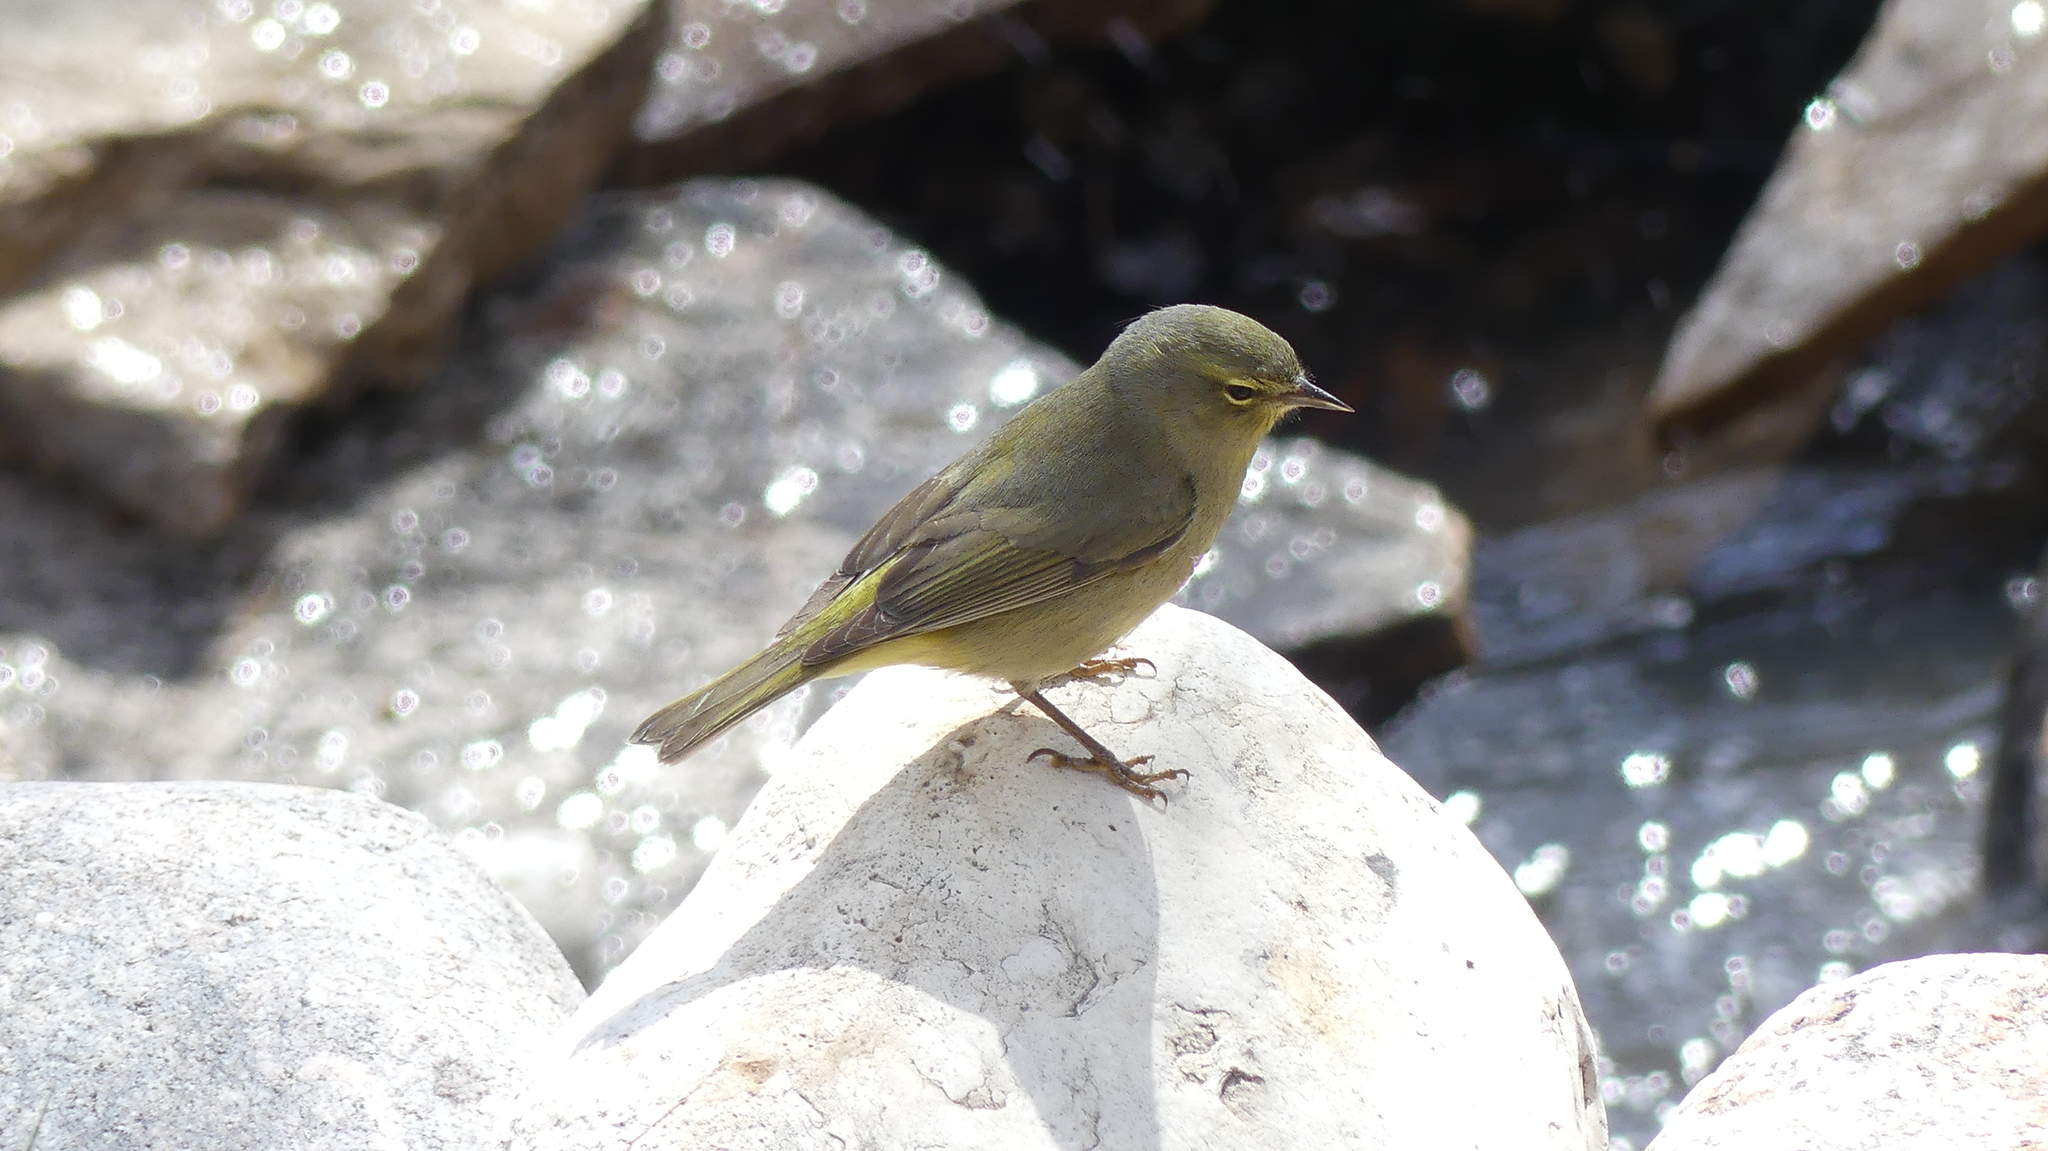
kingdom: Animalia
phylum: Chordata
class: Aves
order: Passeriformes
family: Parulidae
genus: Leiothlypis
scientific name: Leiothlypis celata
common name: Orange-crowned warbler
